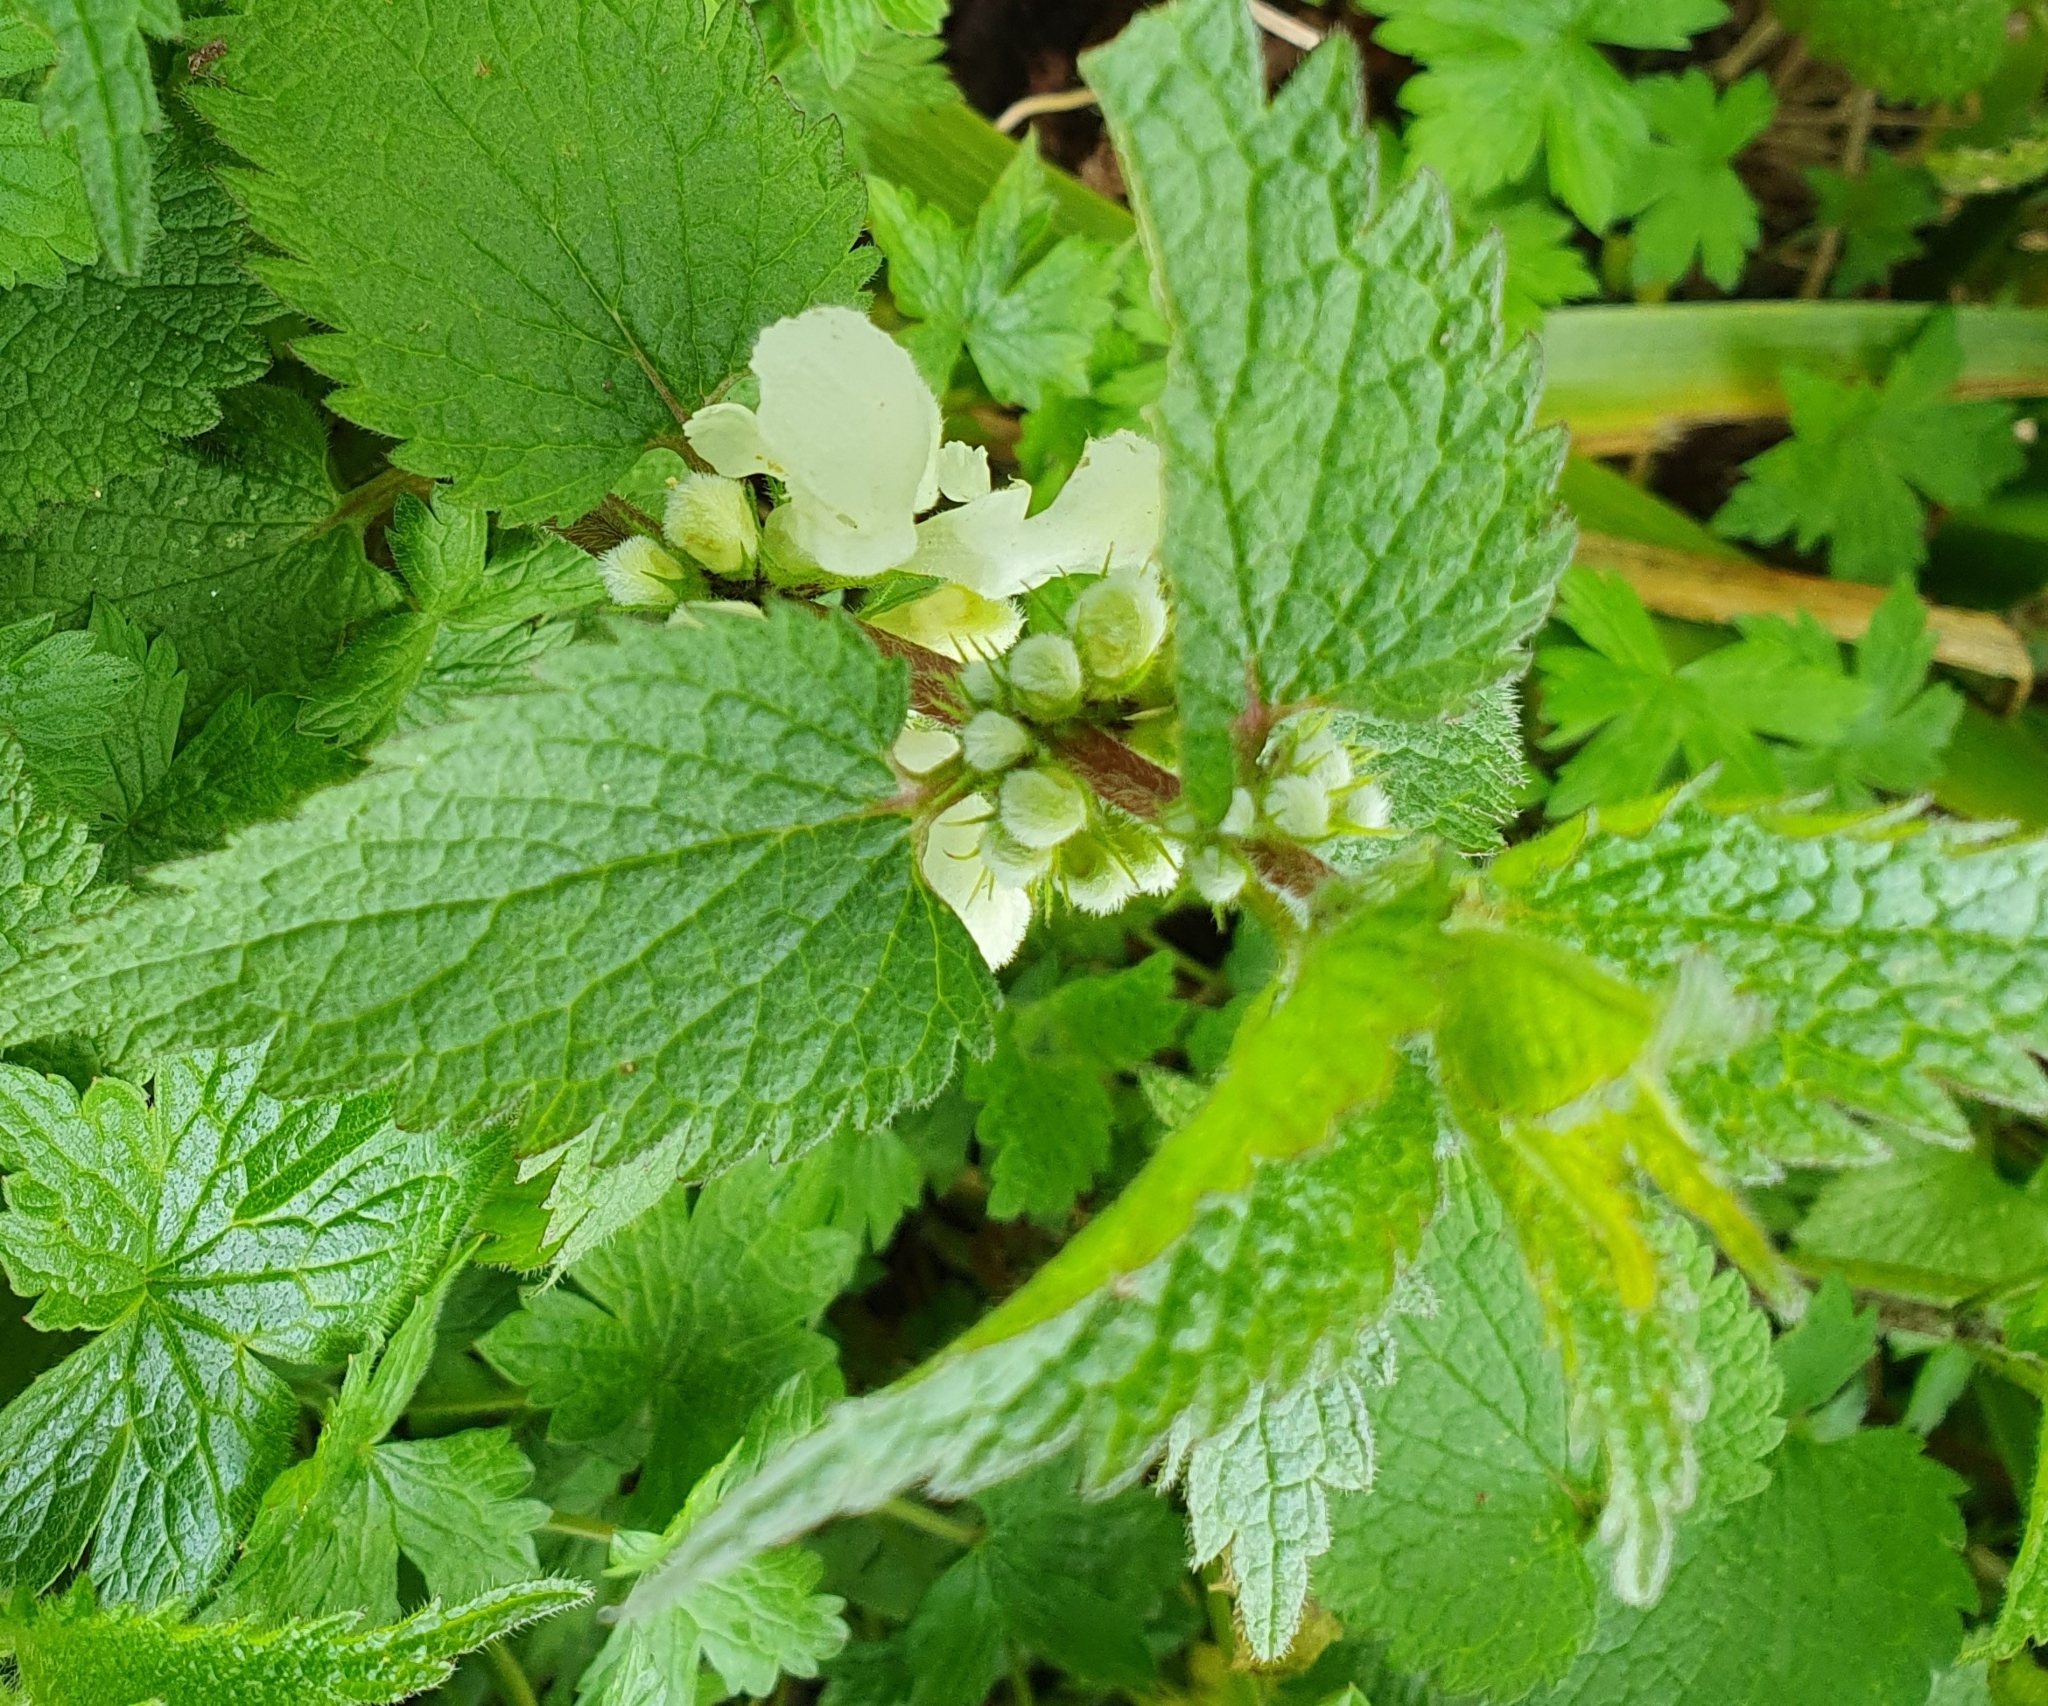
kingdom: Plantae
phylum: Tracheophyta
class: Magnoliopsida
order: Lamiales
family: Lamiaceae
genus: Lamium
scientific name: Lamium album
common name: White dead-nettle
